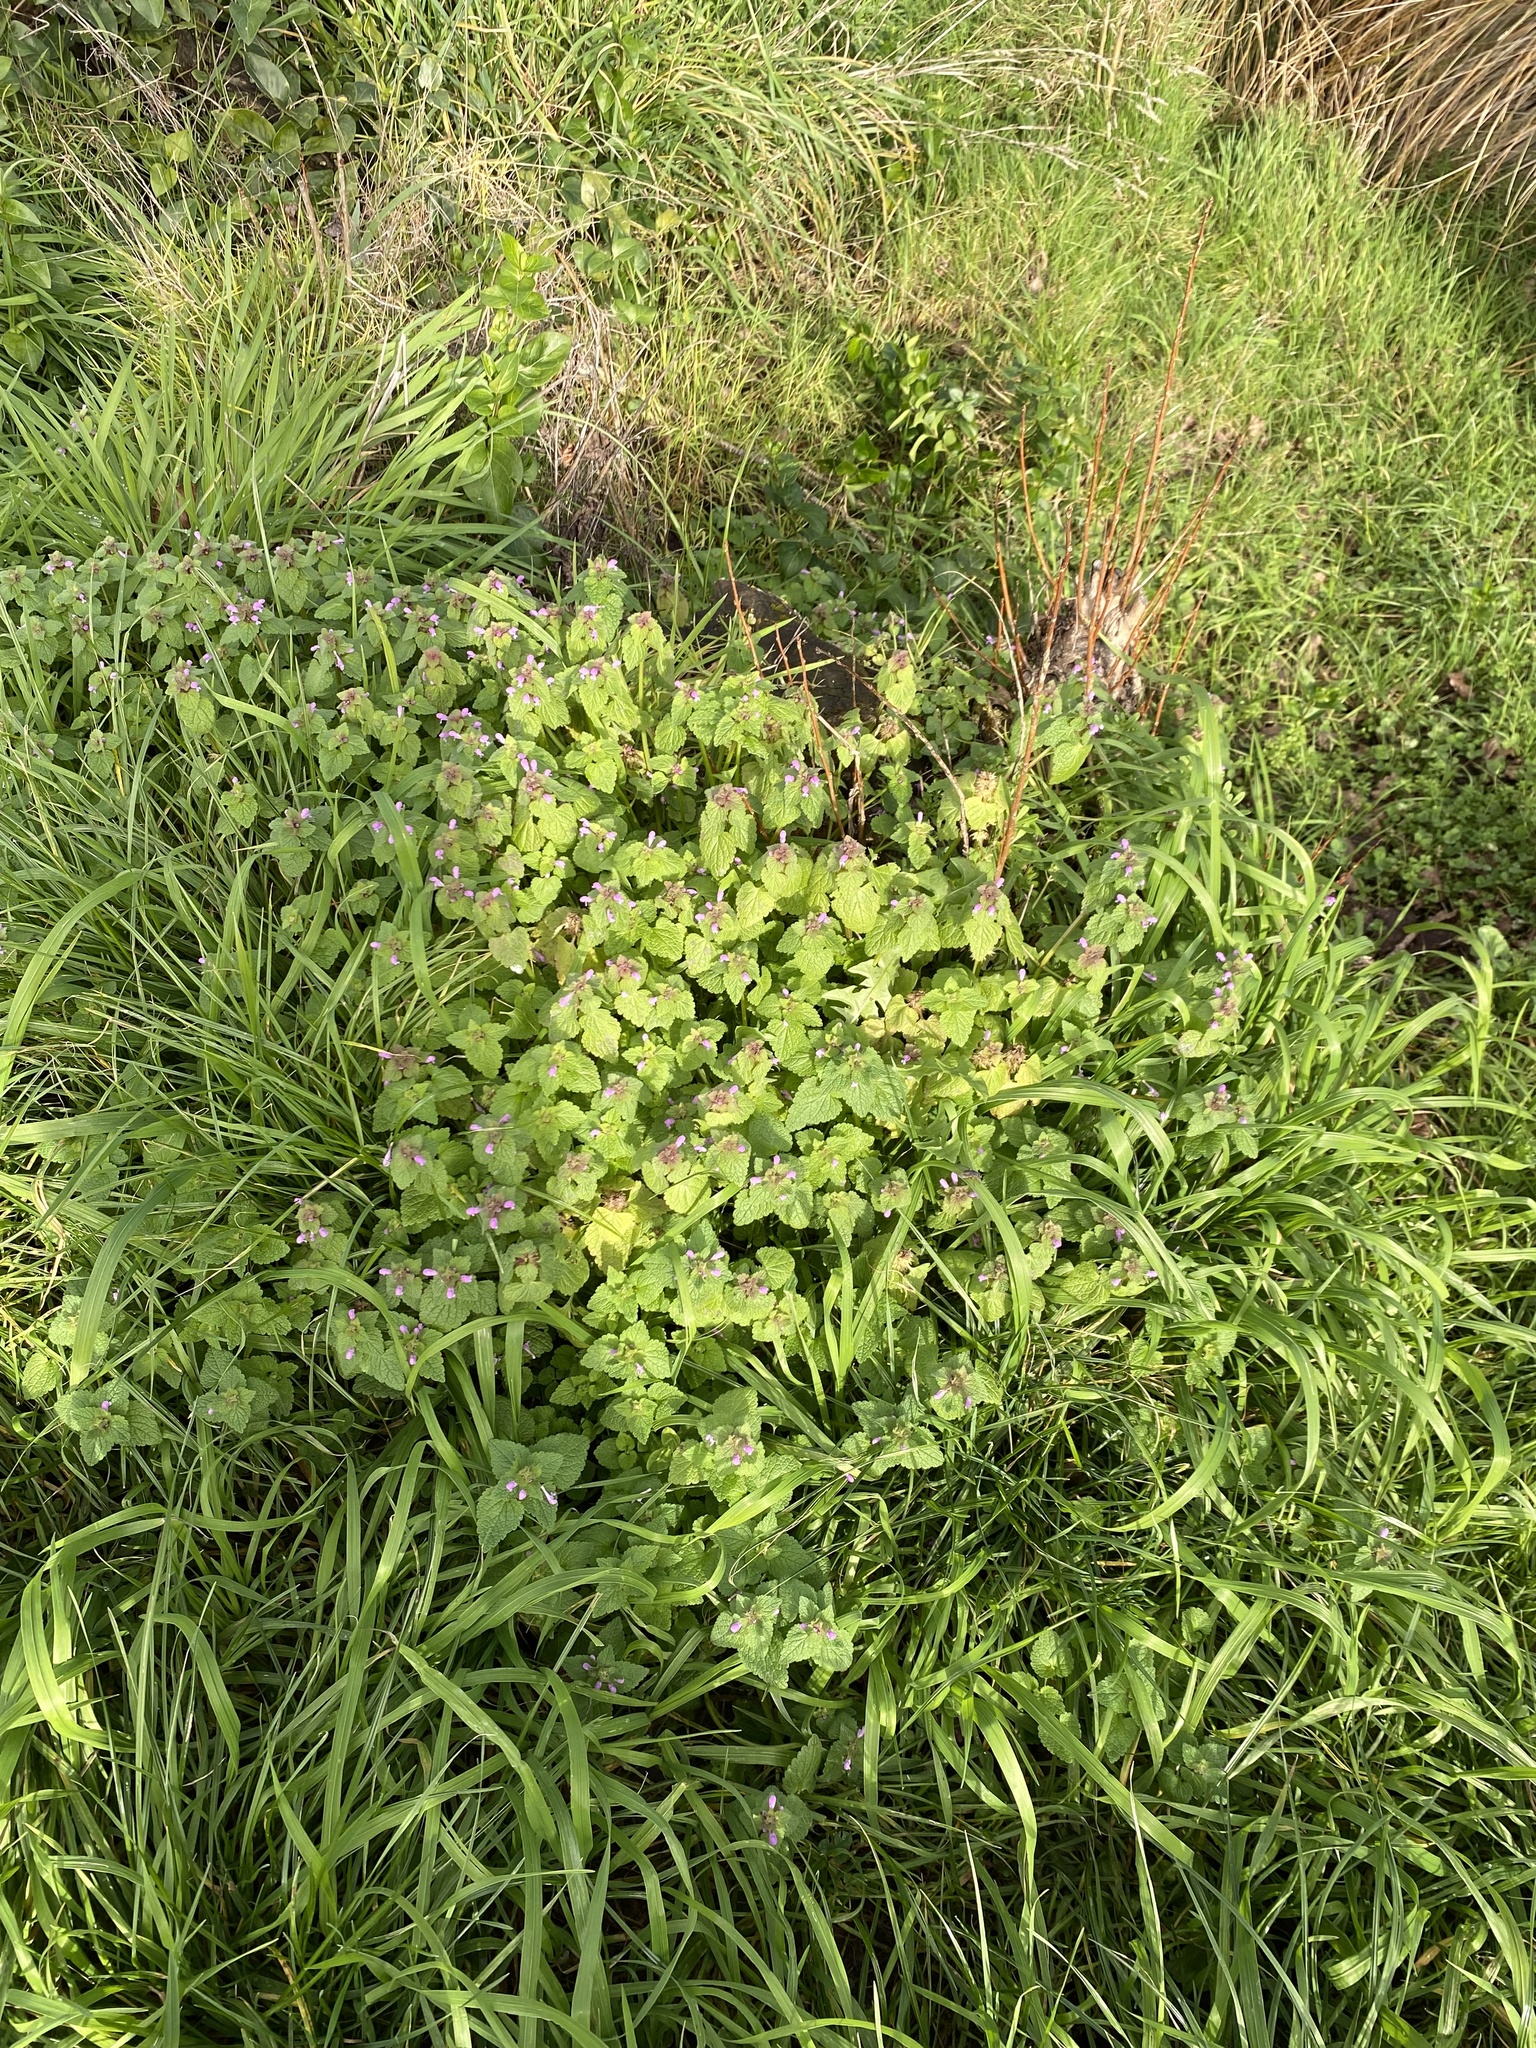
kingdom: Plantae
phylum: Tracheophyta
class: Magnoliopsida
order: Lamiales
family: Lamiaceae
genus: Lamium
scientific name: Lamium purpureum
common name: Red dead-nettle
